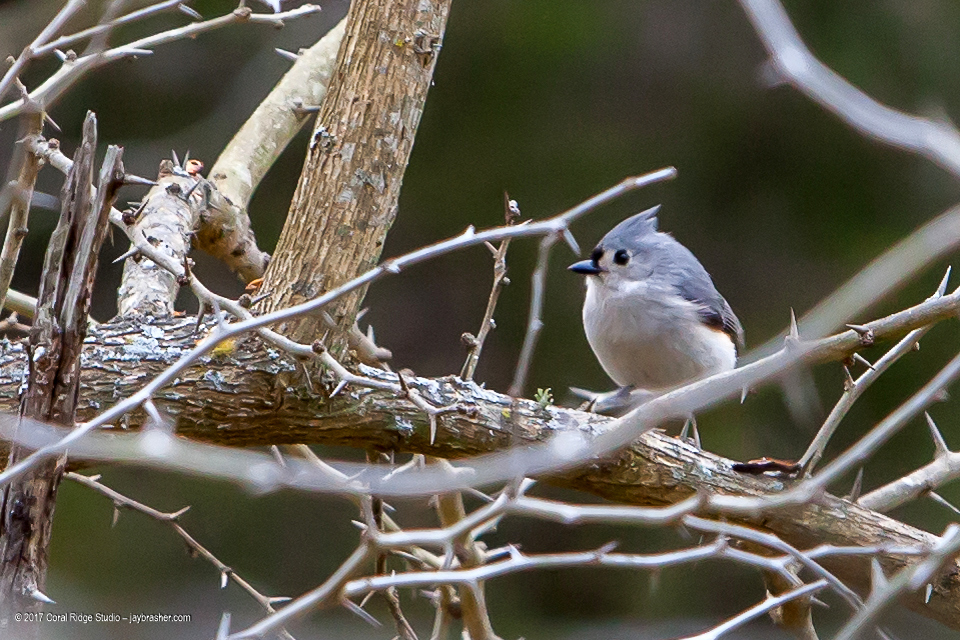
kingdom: Animalia
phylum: Chordata
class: Aves
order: Passeriformes
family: Paridae
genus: Baeolophus
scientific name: Baeolophus bicolor
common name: Tufted titmouse
